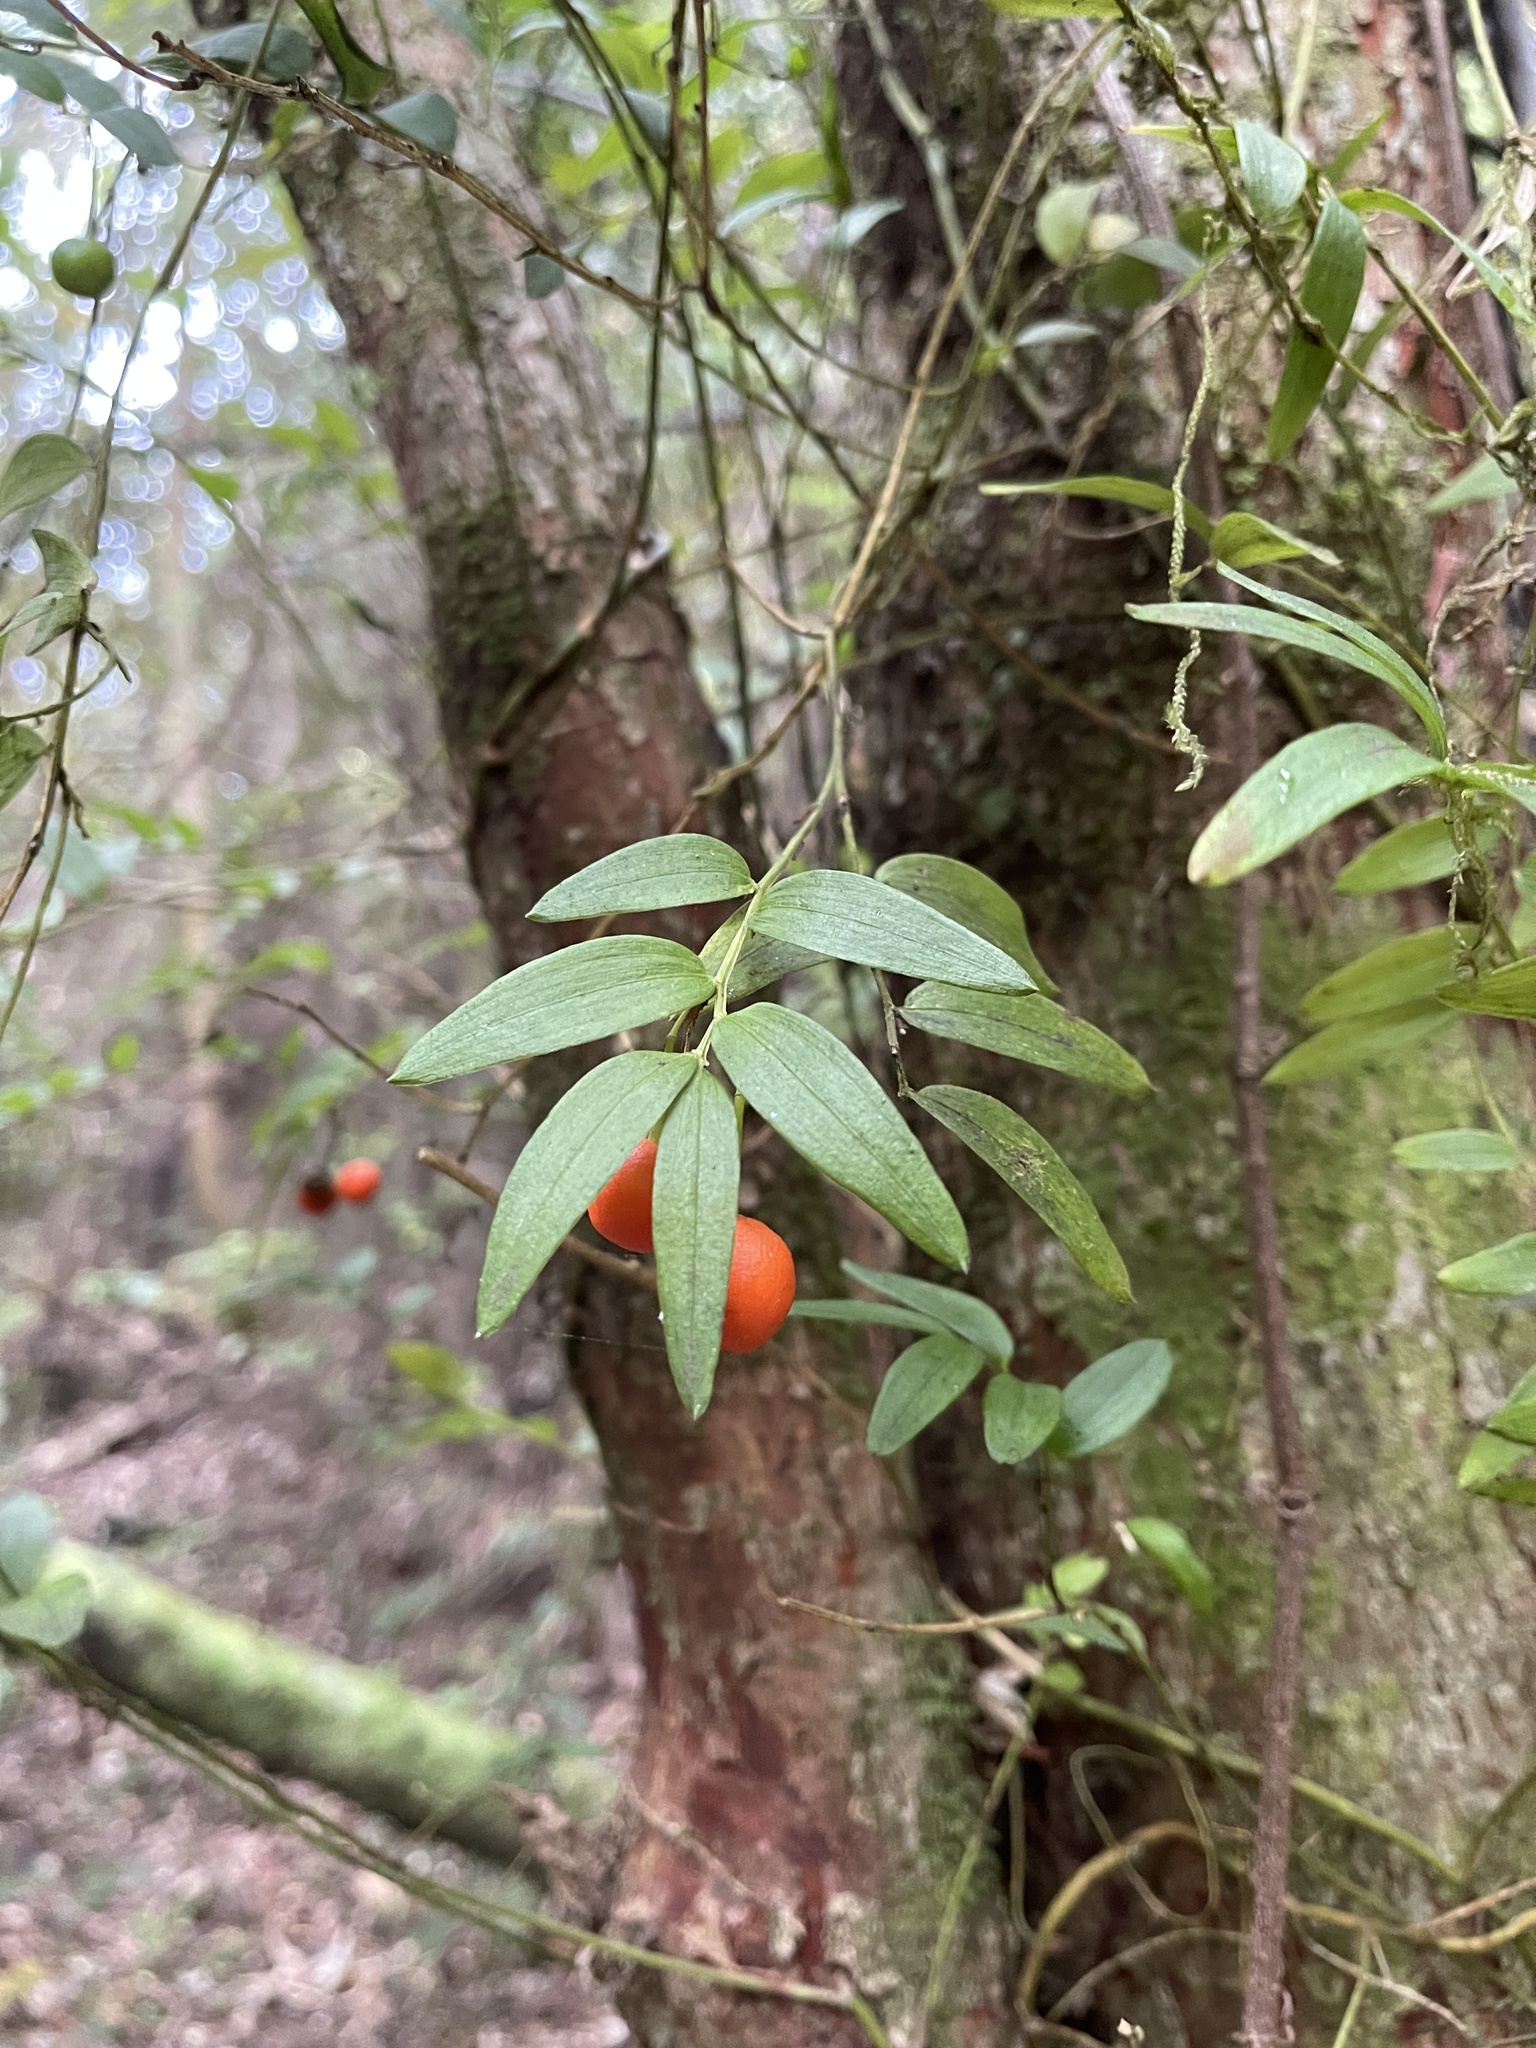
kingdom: Plantae
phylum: Tracheophyta
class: Liliopsida
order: Liliales
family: Alstroemeriaceae
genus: Luzuriaga
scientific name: Luzuriaga radicans
